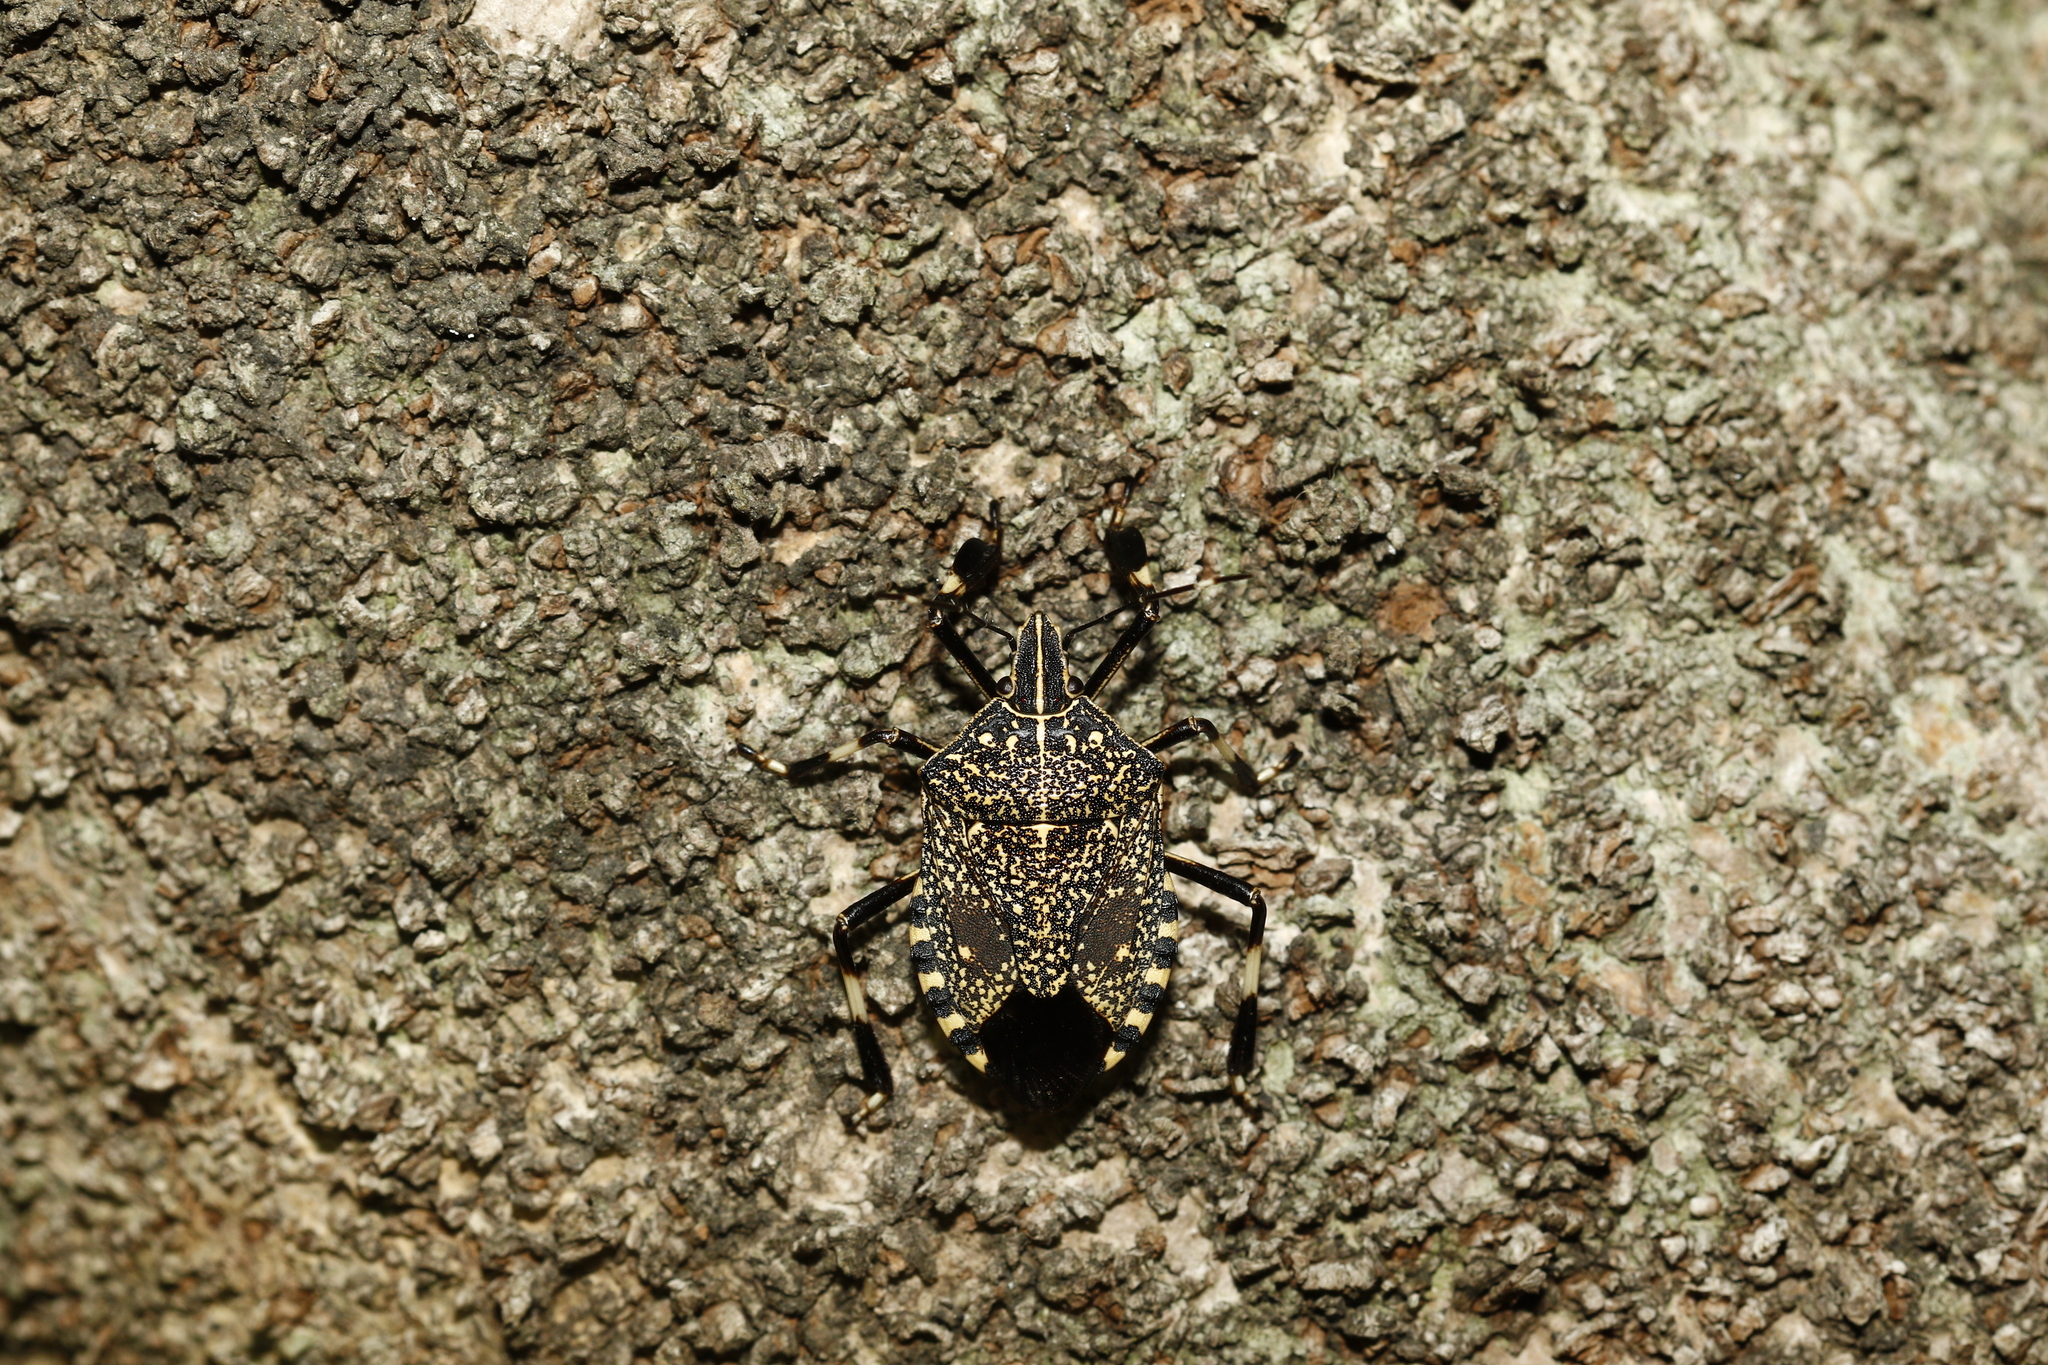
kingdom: Animalia
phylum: Arthropoda
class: Insecta
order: Hemiptera
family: Pentatomidae
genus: Erthesina
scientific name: Erthesina fullo
